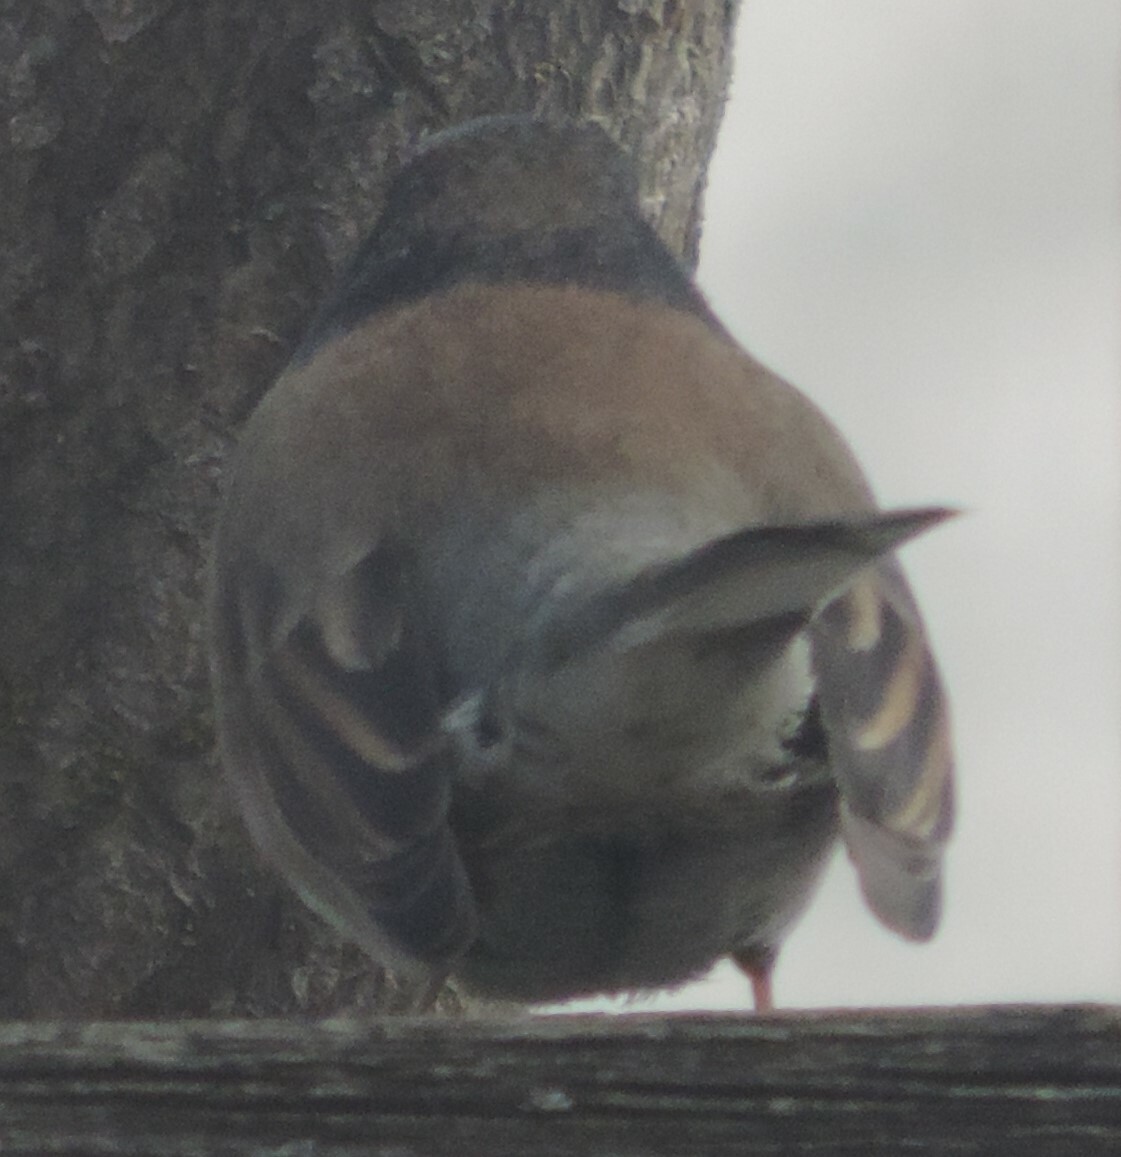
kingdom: Animalia
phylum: Chordata
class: Aves
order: Passeriformes
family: Passerellidae
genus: Junco
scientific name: Junco hyemalis
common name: Dark-eyed junco
